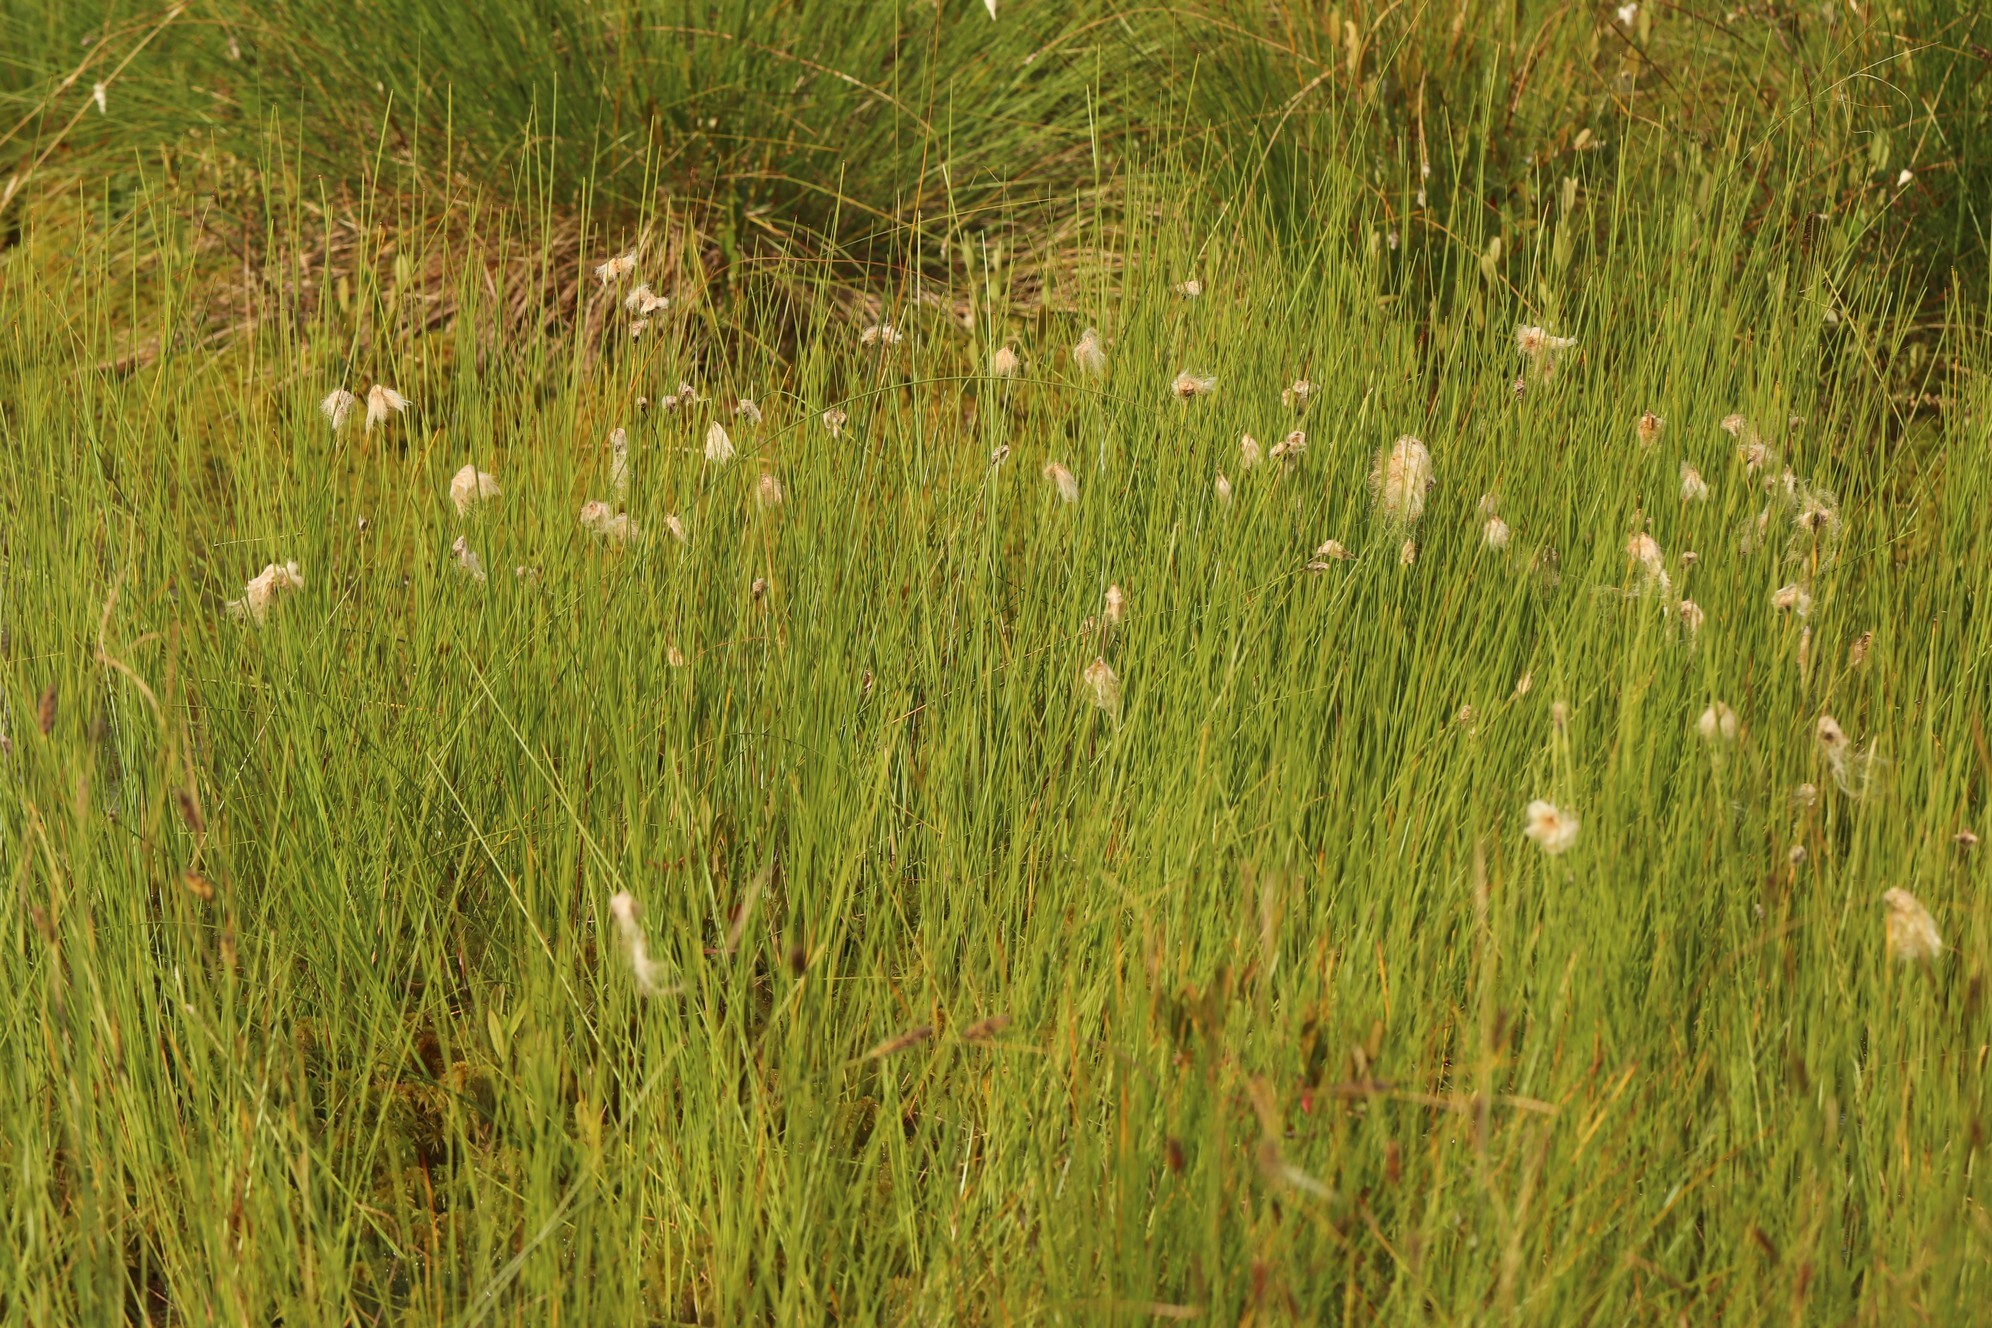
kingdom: Plantae
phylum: Tracheophyta
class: Liliopsida
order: Poales
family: Cyperaceae
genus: Eriophorum
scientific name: Eriophorum chamissonis
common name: Chamisso's cottongrass
